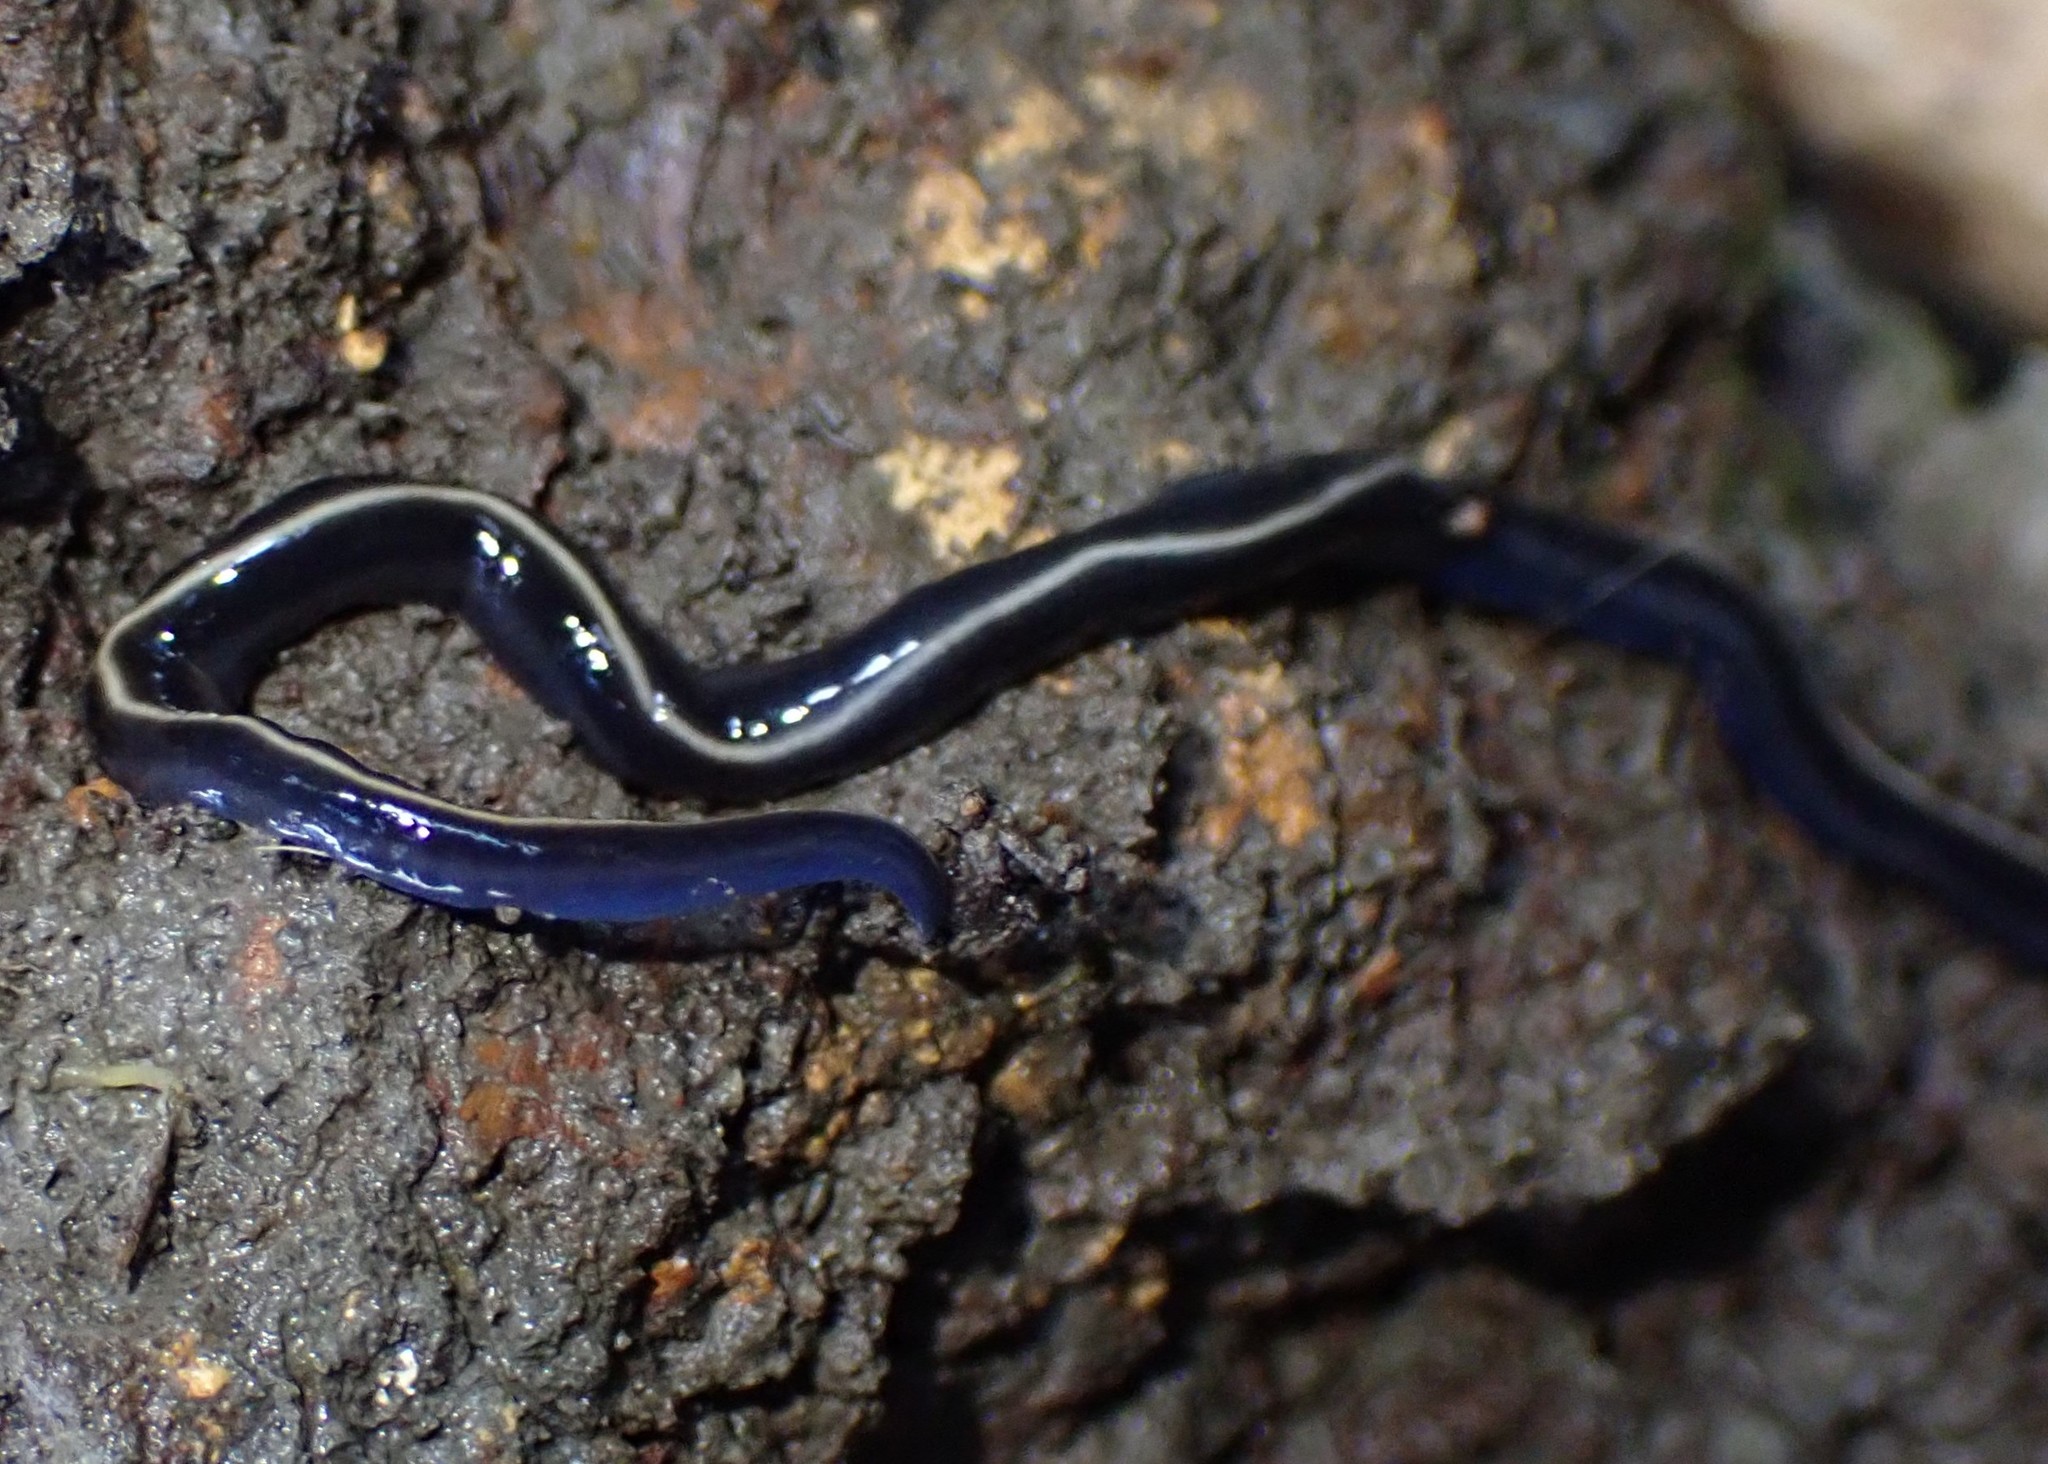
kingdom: Animalia
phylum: Platyhelminthes
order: Tricladida
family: Geoplanidae
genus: Caenoplana
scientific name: Caenoplana coerulea
